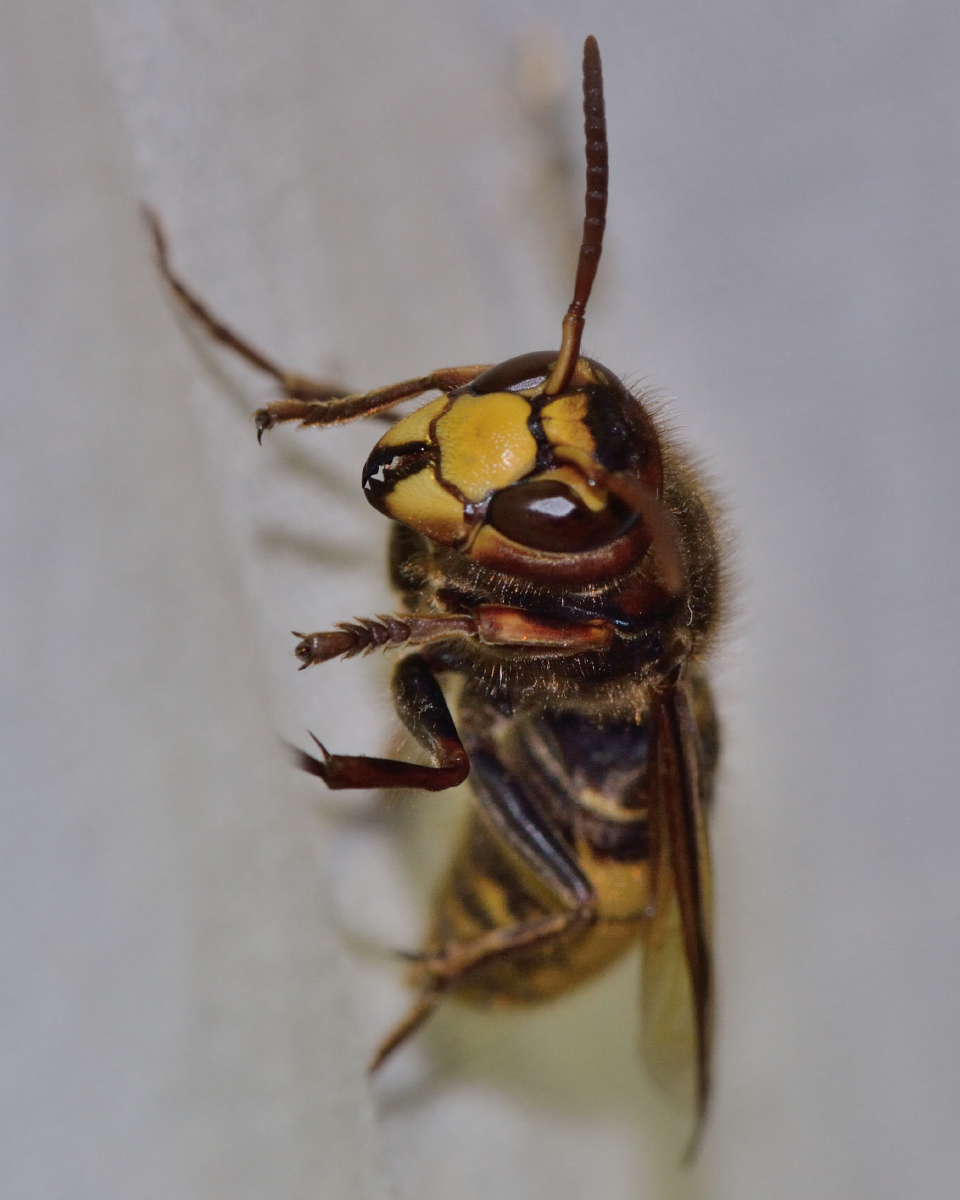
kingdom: Animalia
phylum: Arthropoda
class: Insecta
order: Hymenoptera
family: Vespidae
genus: Vespa
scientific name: Vespa crabro
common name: Hornet
